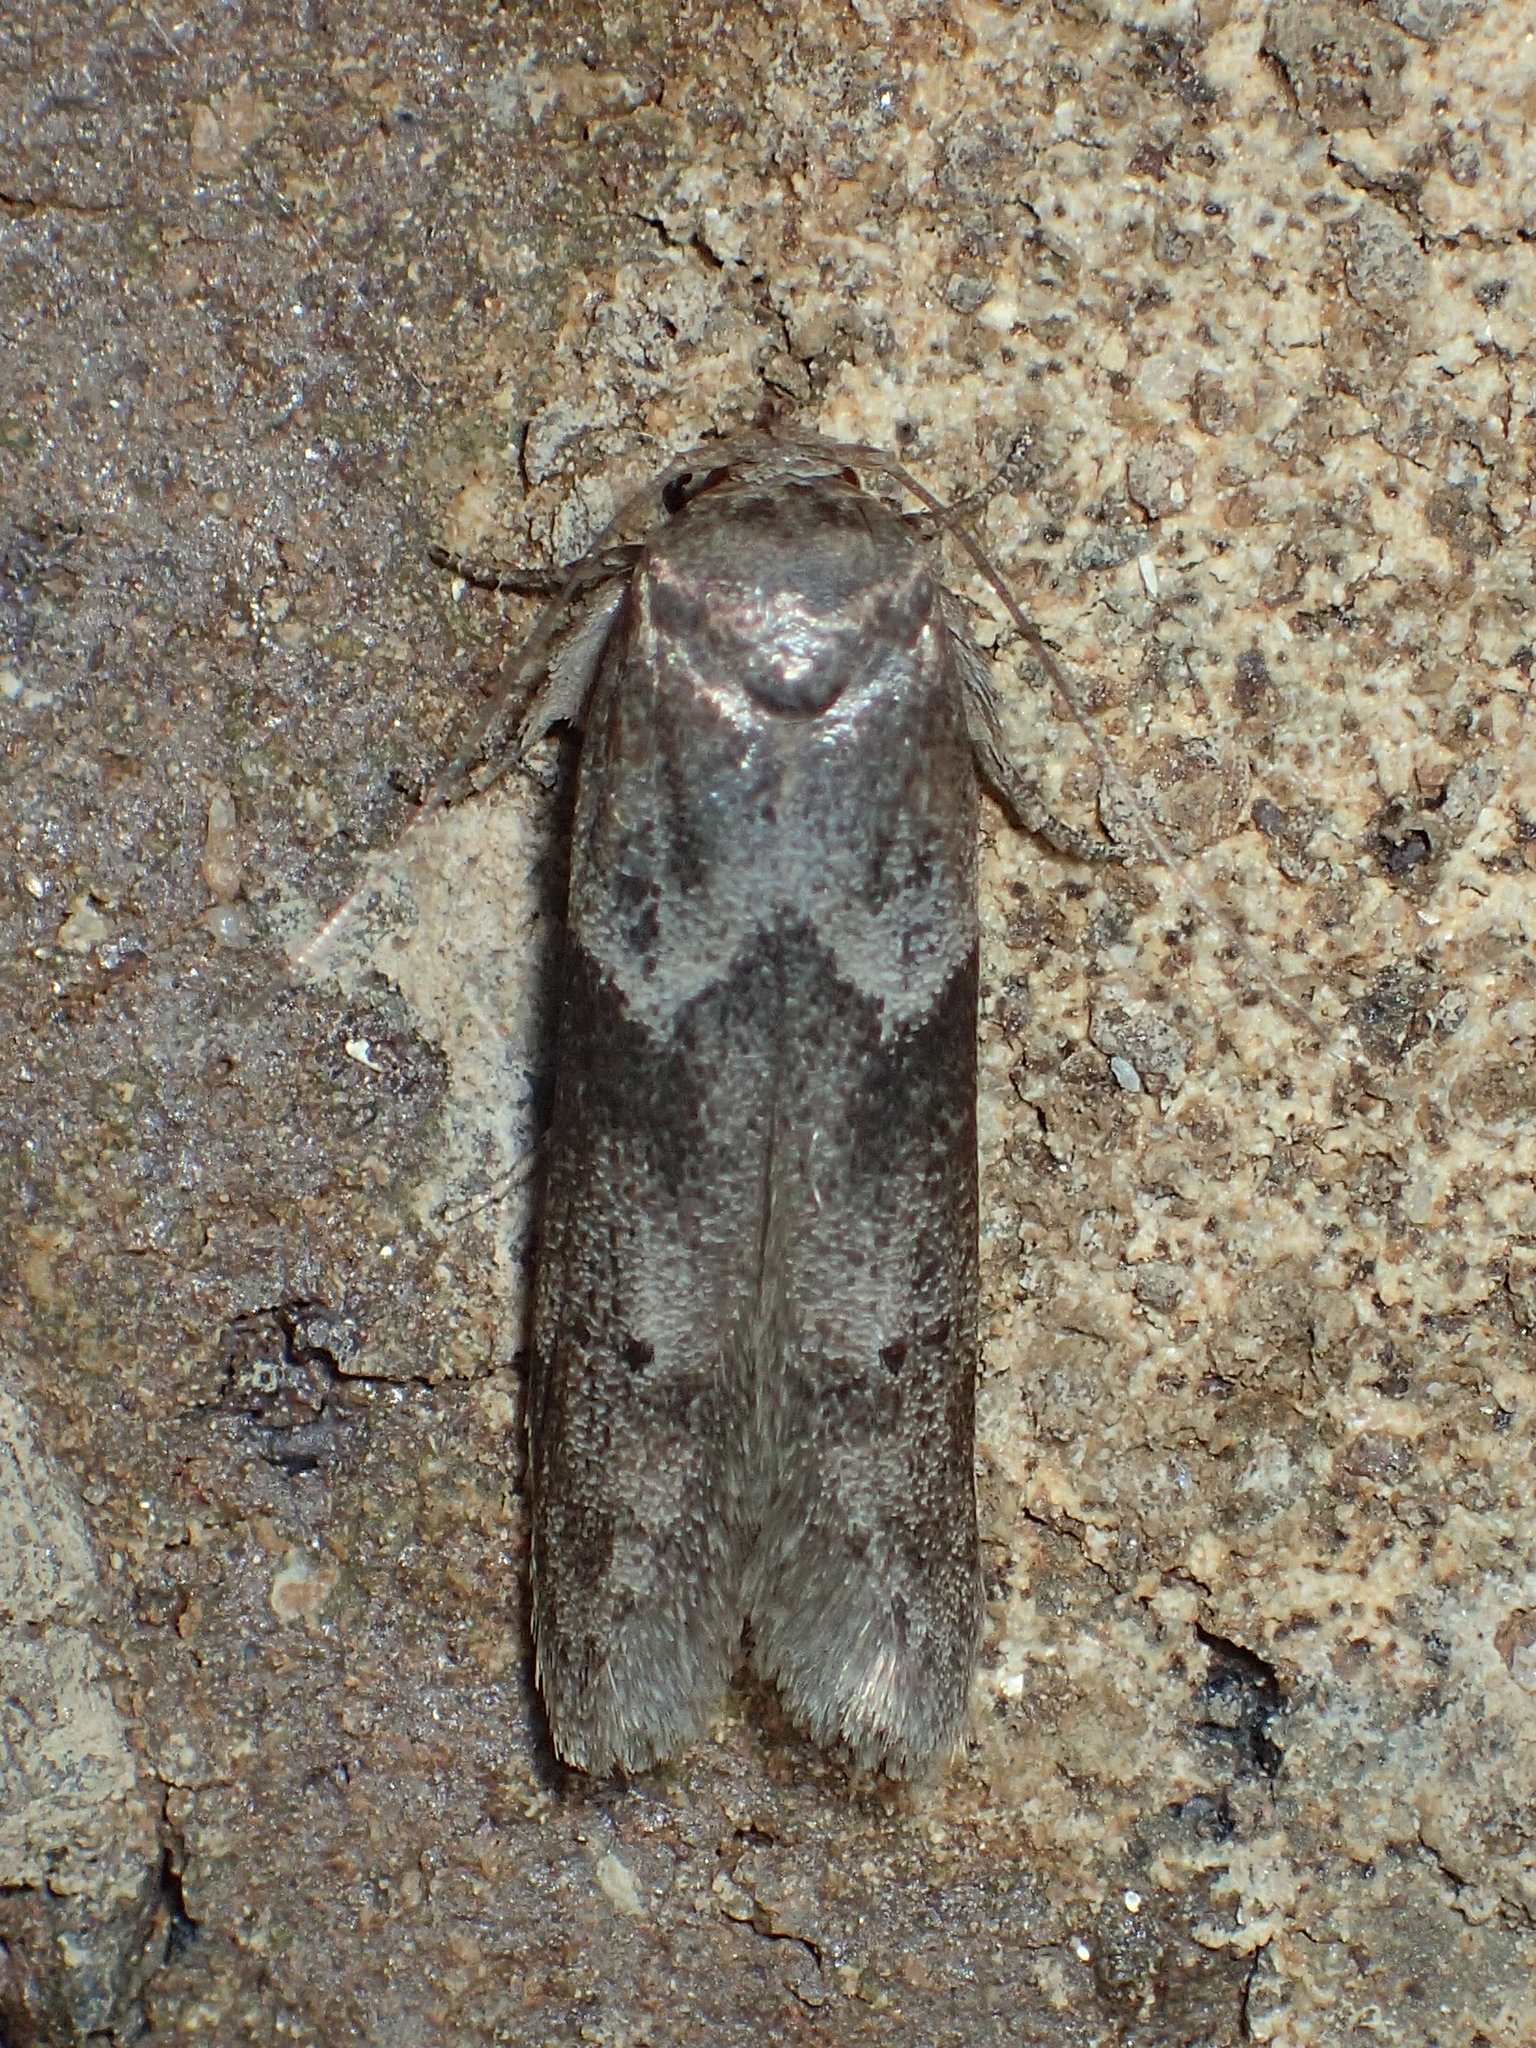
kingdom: Animalia
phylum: Arthropoda
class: Insecta
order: Lepidoptera
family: Blastobasidae
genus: Blastobasis
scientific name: Blastobasis glandulella
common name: Acorn moth
